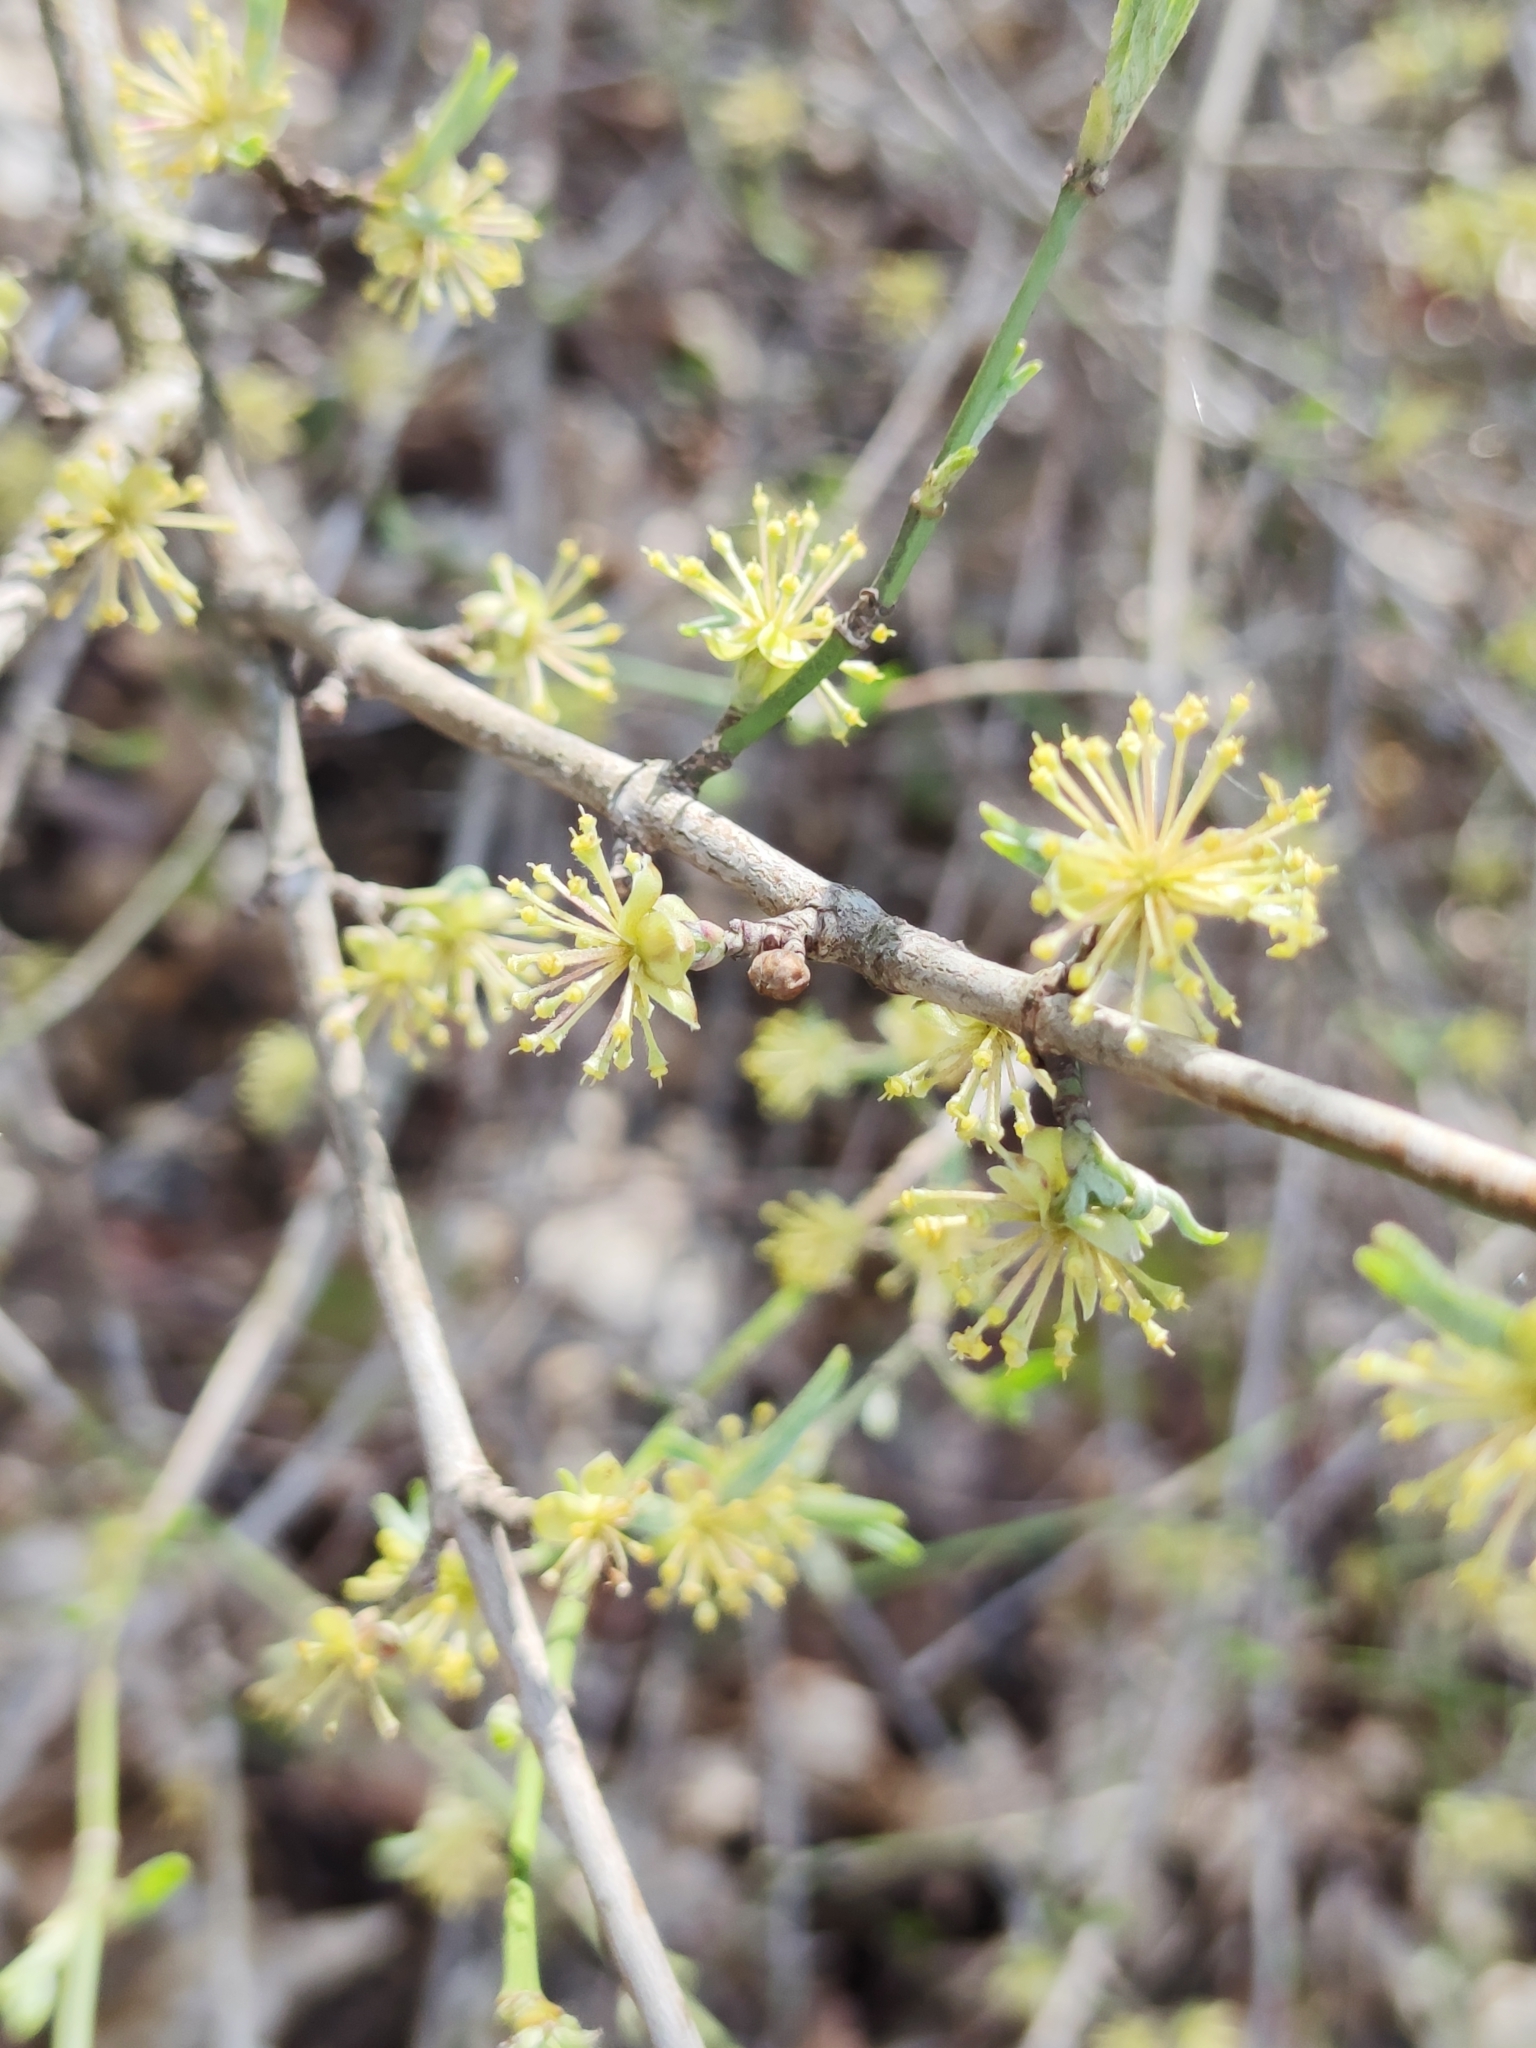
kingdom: Plantae
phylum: Tracheophyta
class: Magnoliopsida
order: Cornales
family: Cornaceae
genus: Cornus
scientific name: Cornus mas
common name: Cornelian-cherry
